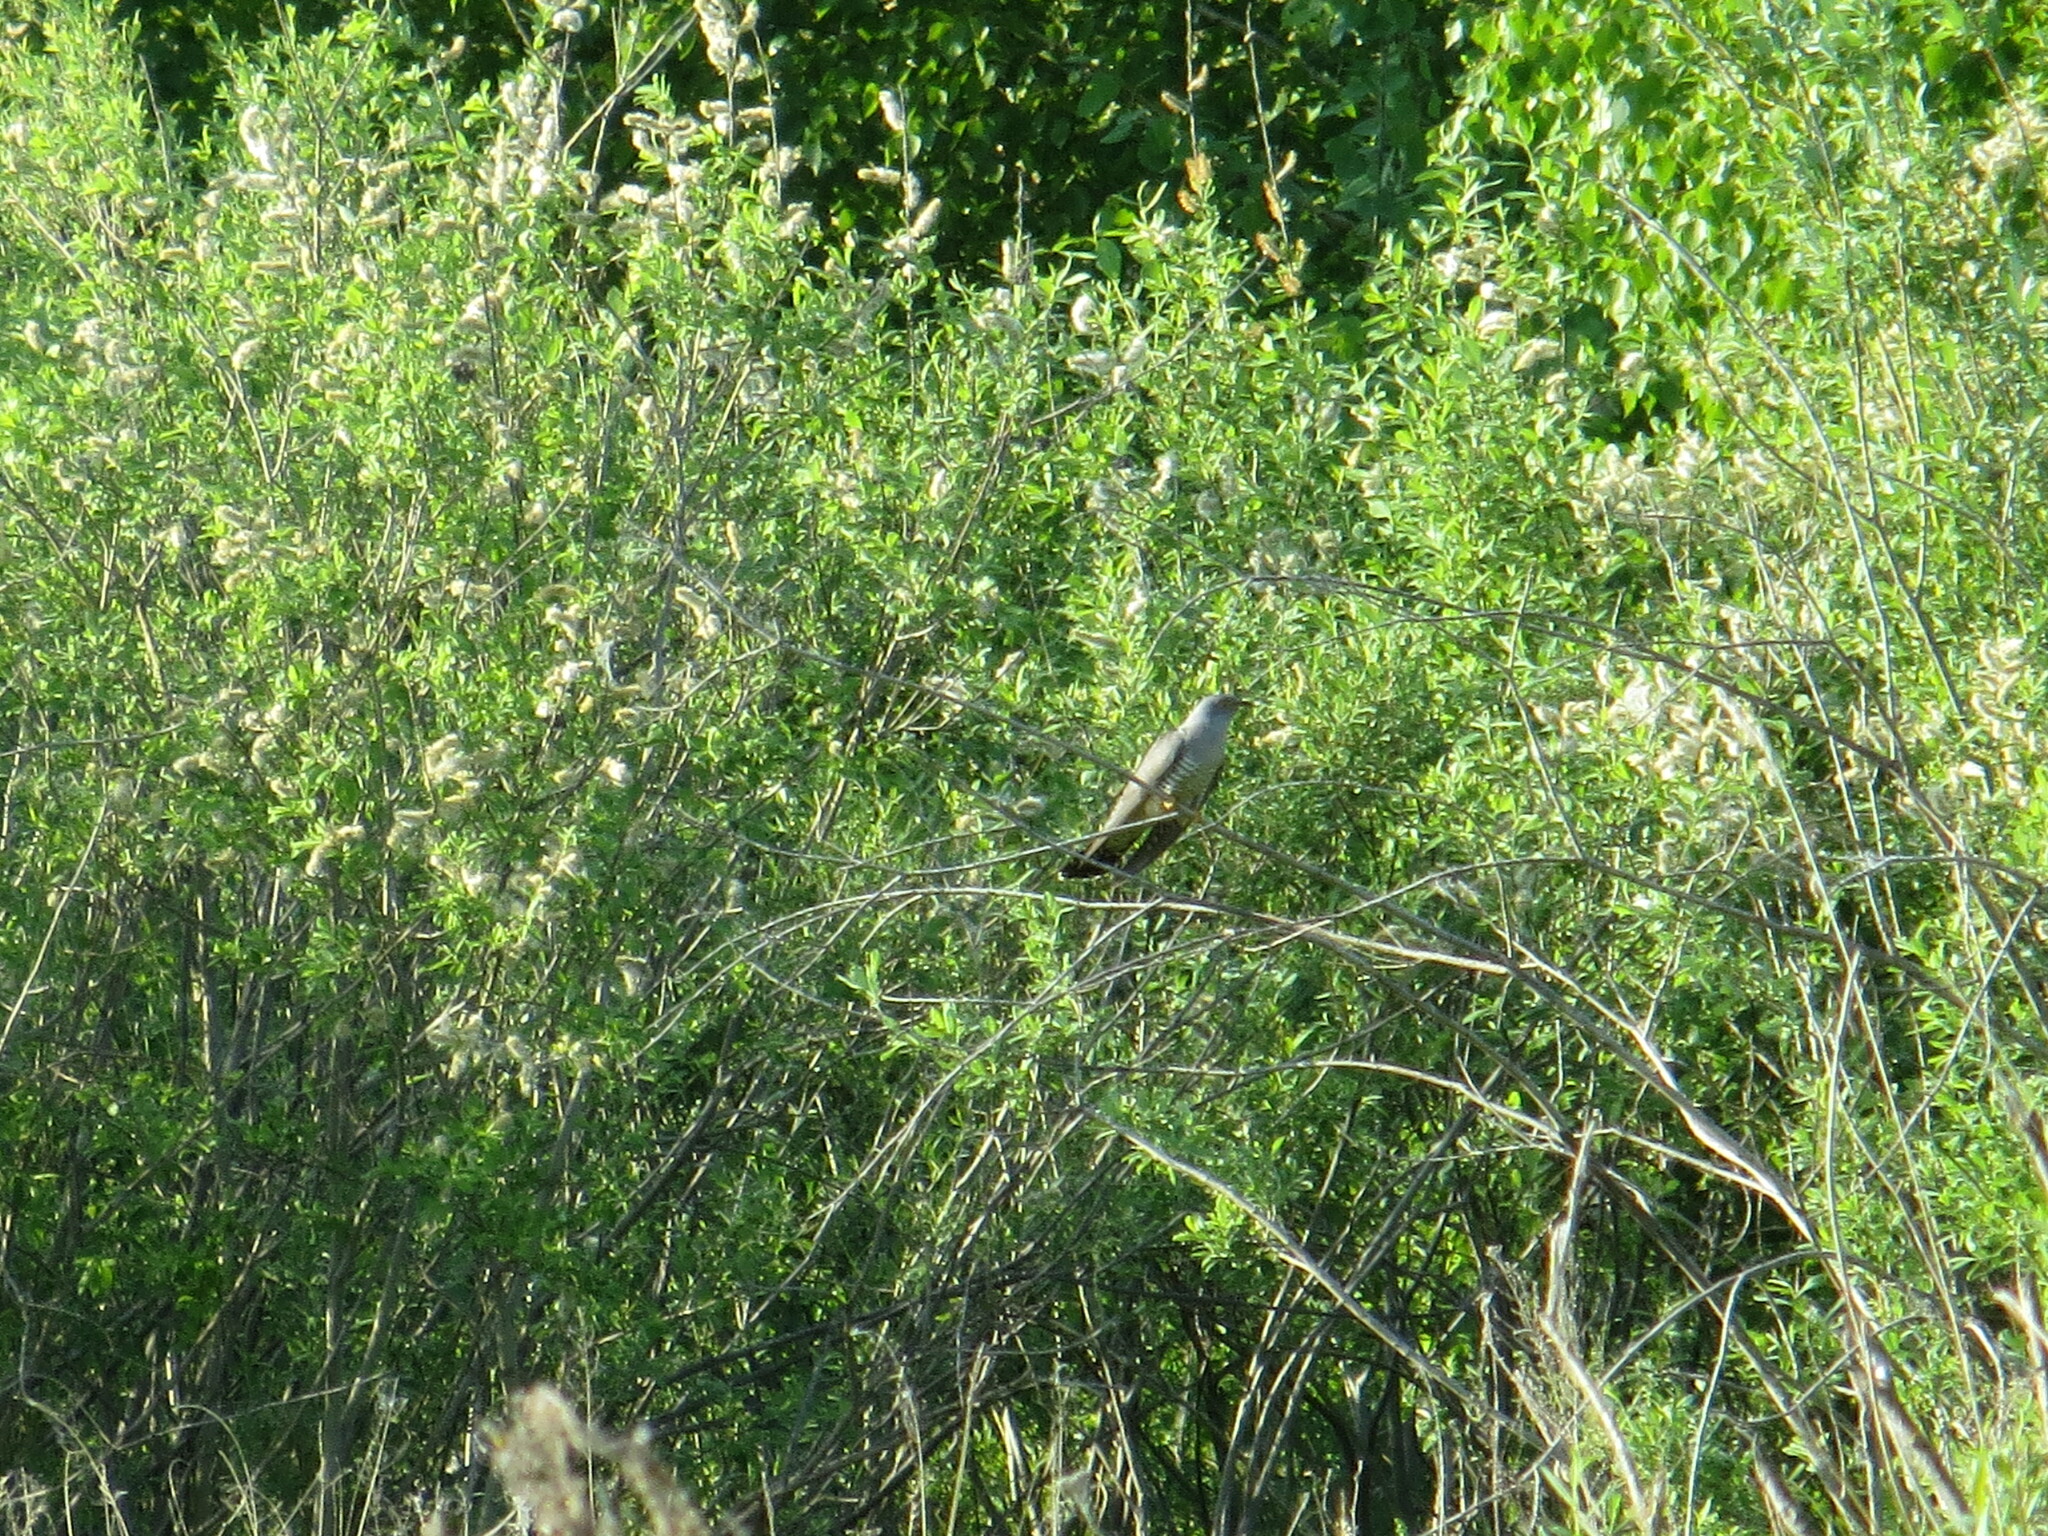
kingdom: Animalia
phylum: Chordata
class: Aves
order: Cuculiformes
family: Cuculidae
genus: Cuculus
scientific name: Cuculus canorus
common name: Common cuckoo
